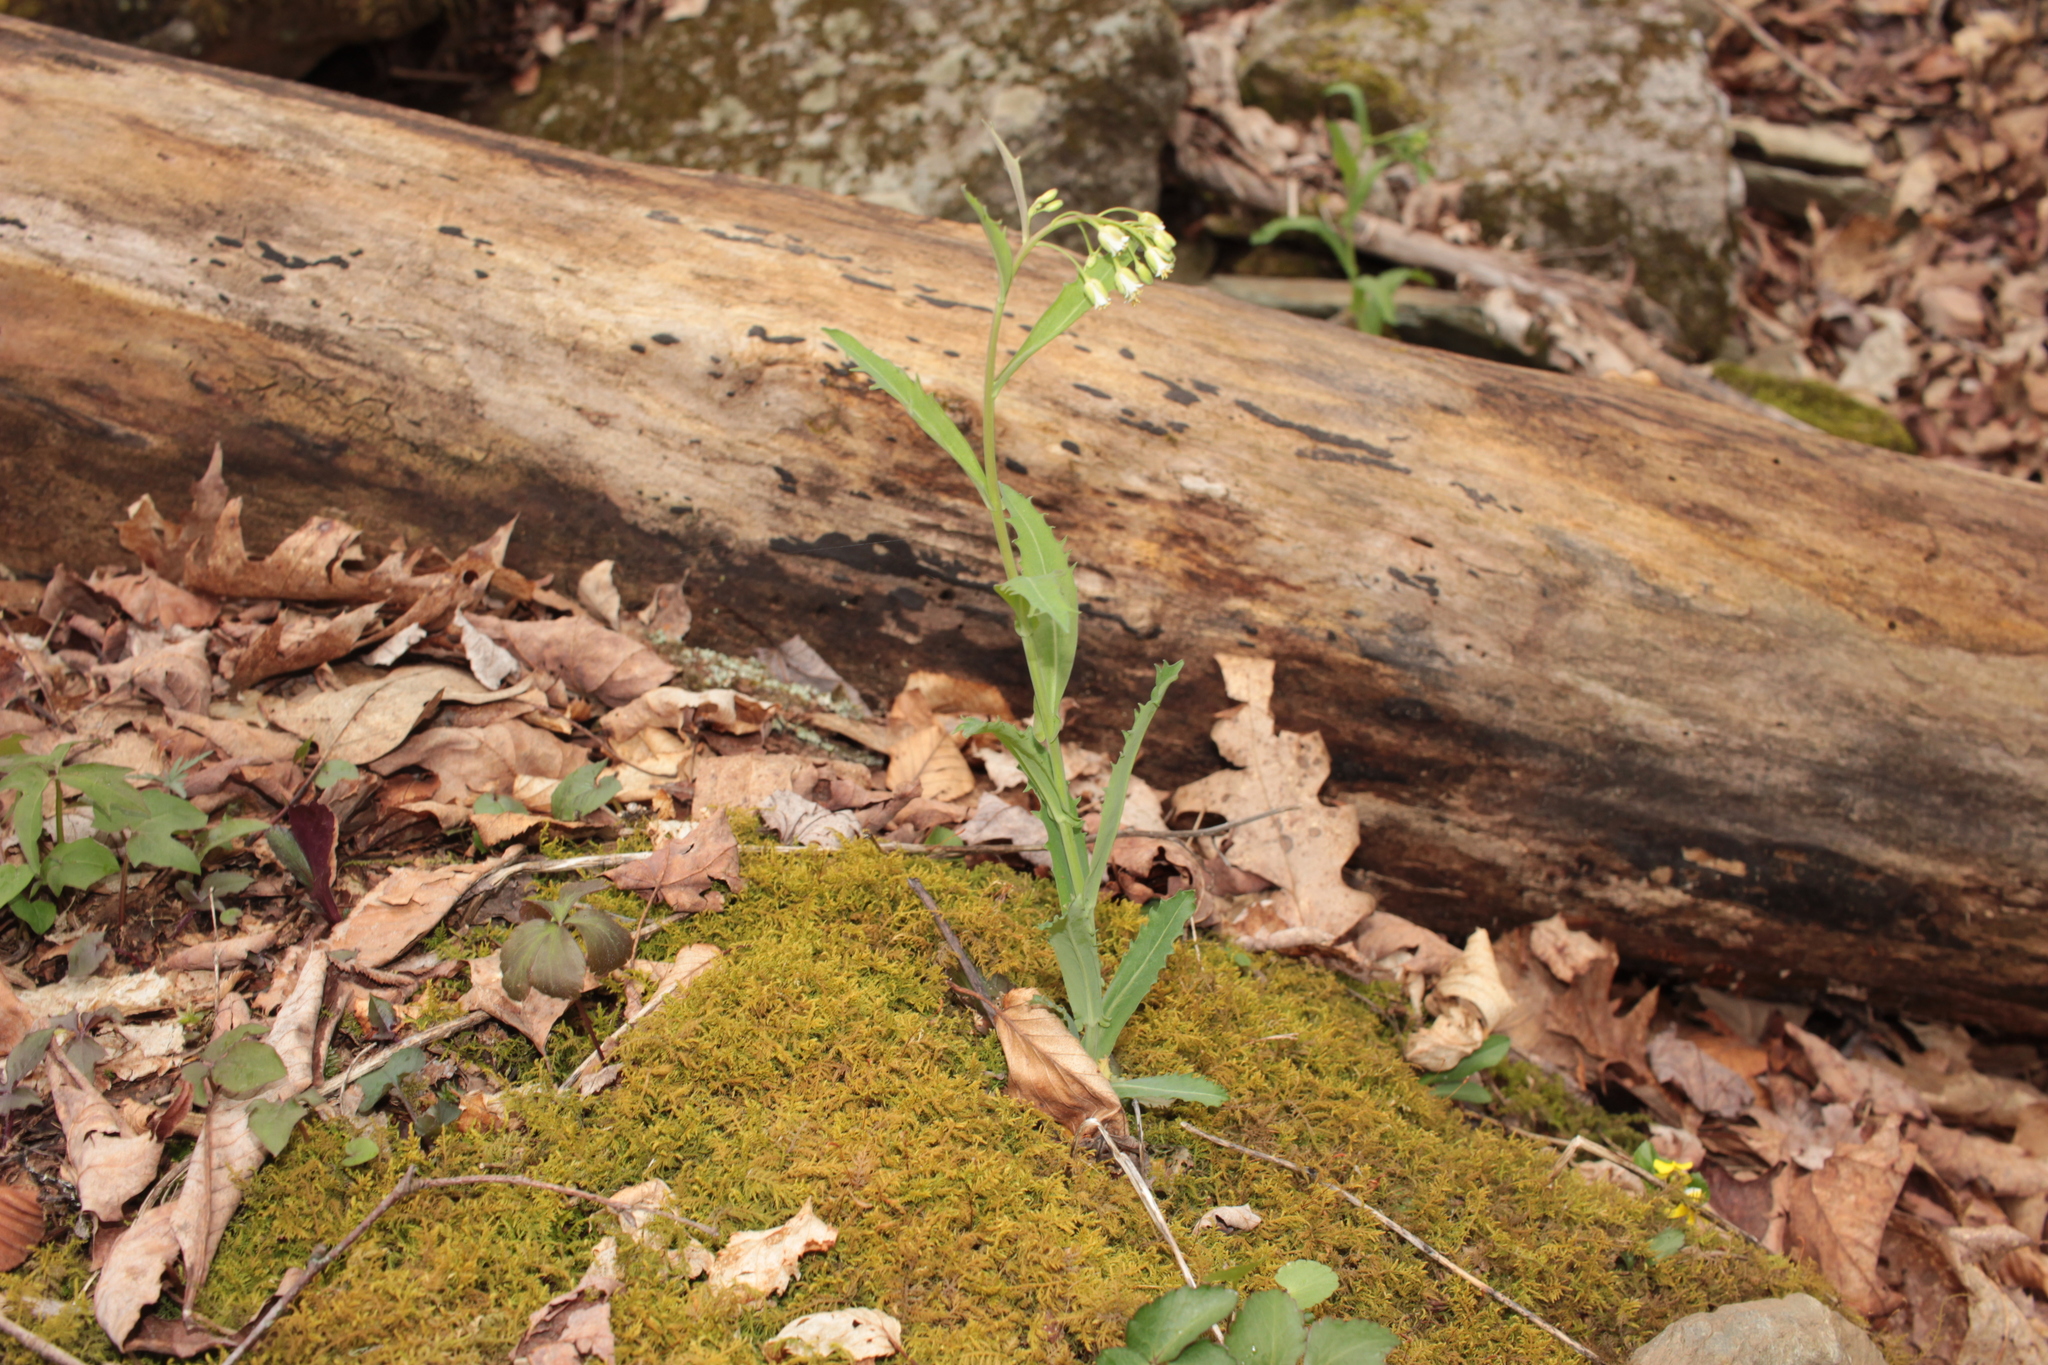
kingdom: Plantae
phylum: Tracheophyta
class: Magnoliopsida
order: Brassicales
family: Brassicaceae
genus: Borodinia
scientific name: Borodinia laevigata
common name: Smooth rockcress
